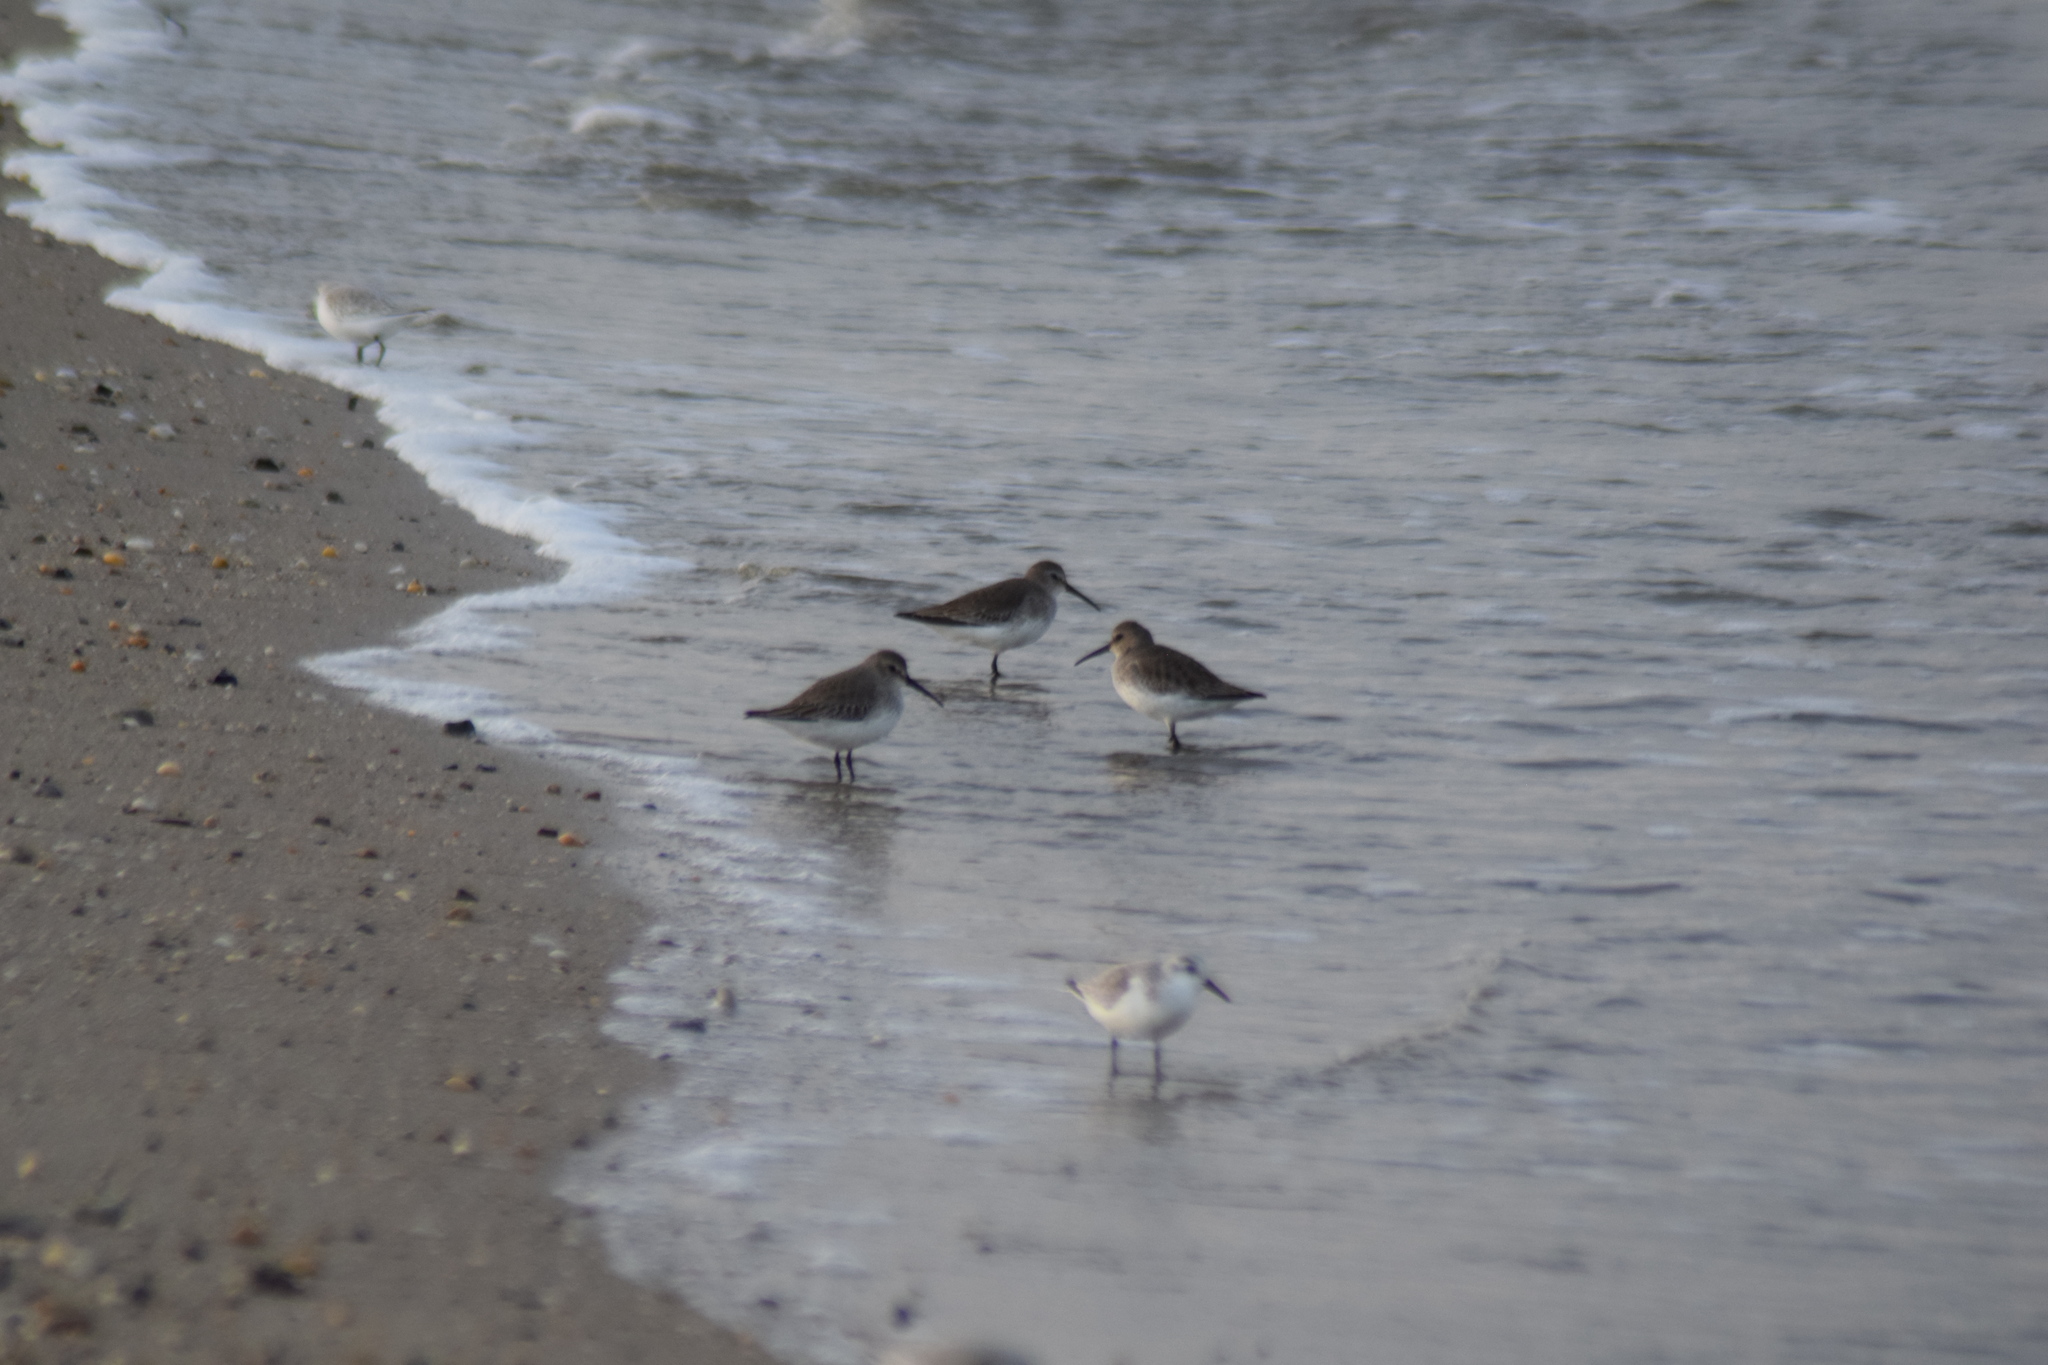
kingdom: Animalia
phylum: Chordata
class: Aves
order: Charadriiformes
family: Scolopacidae
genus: Calidris
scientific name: Calidris alpina
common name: Dunlin
